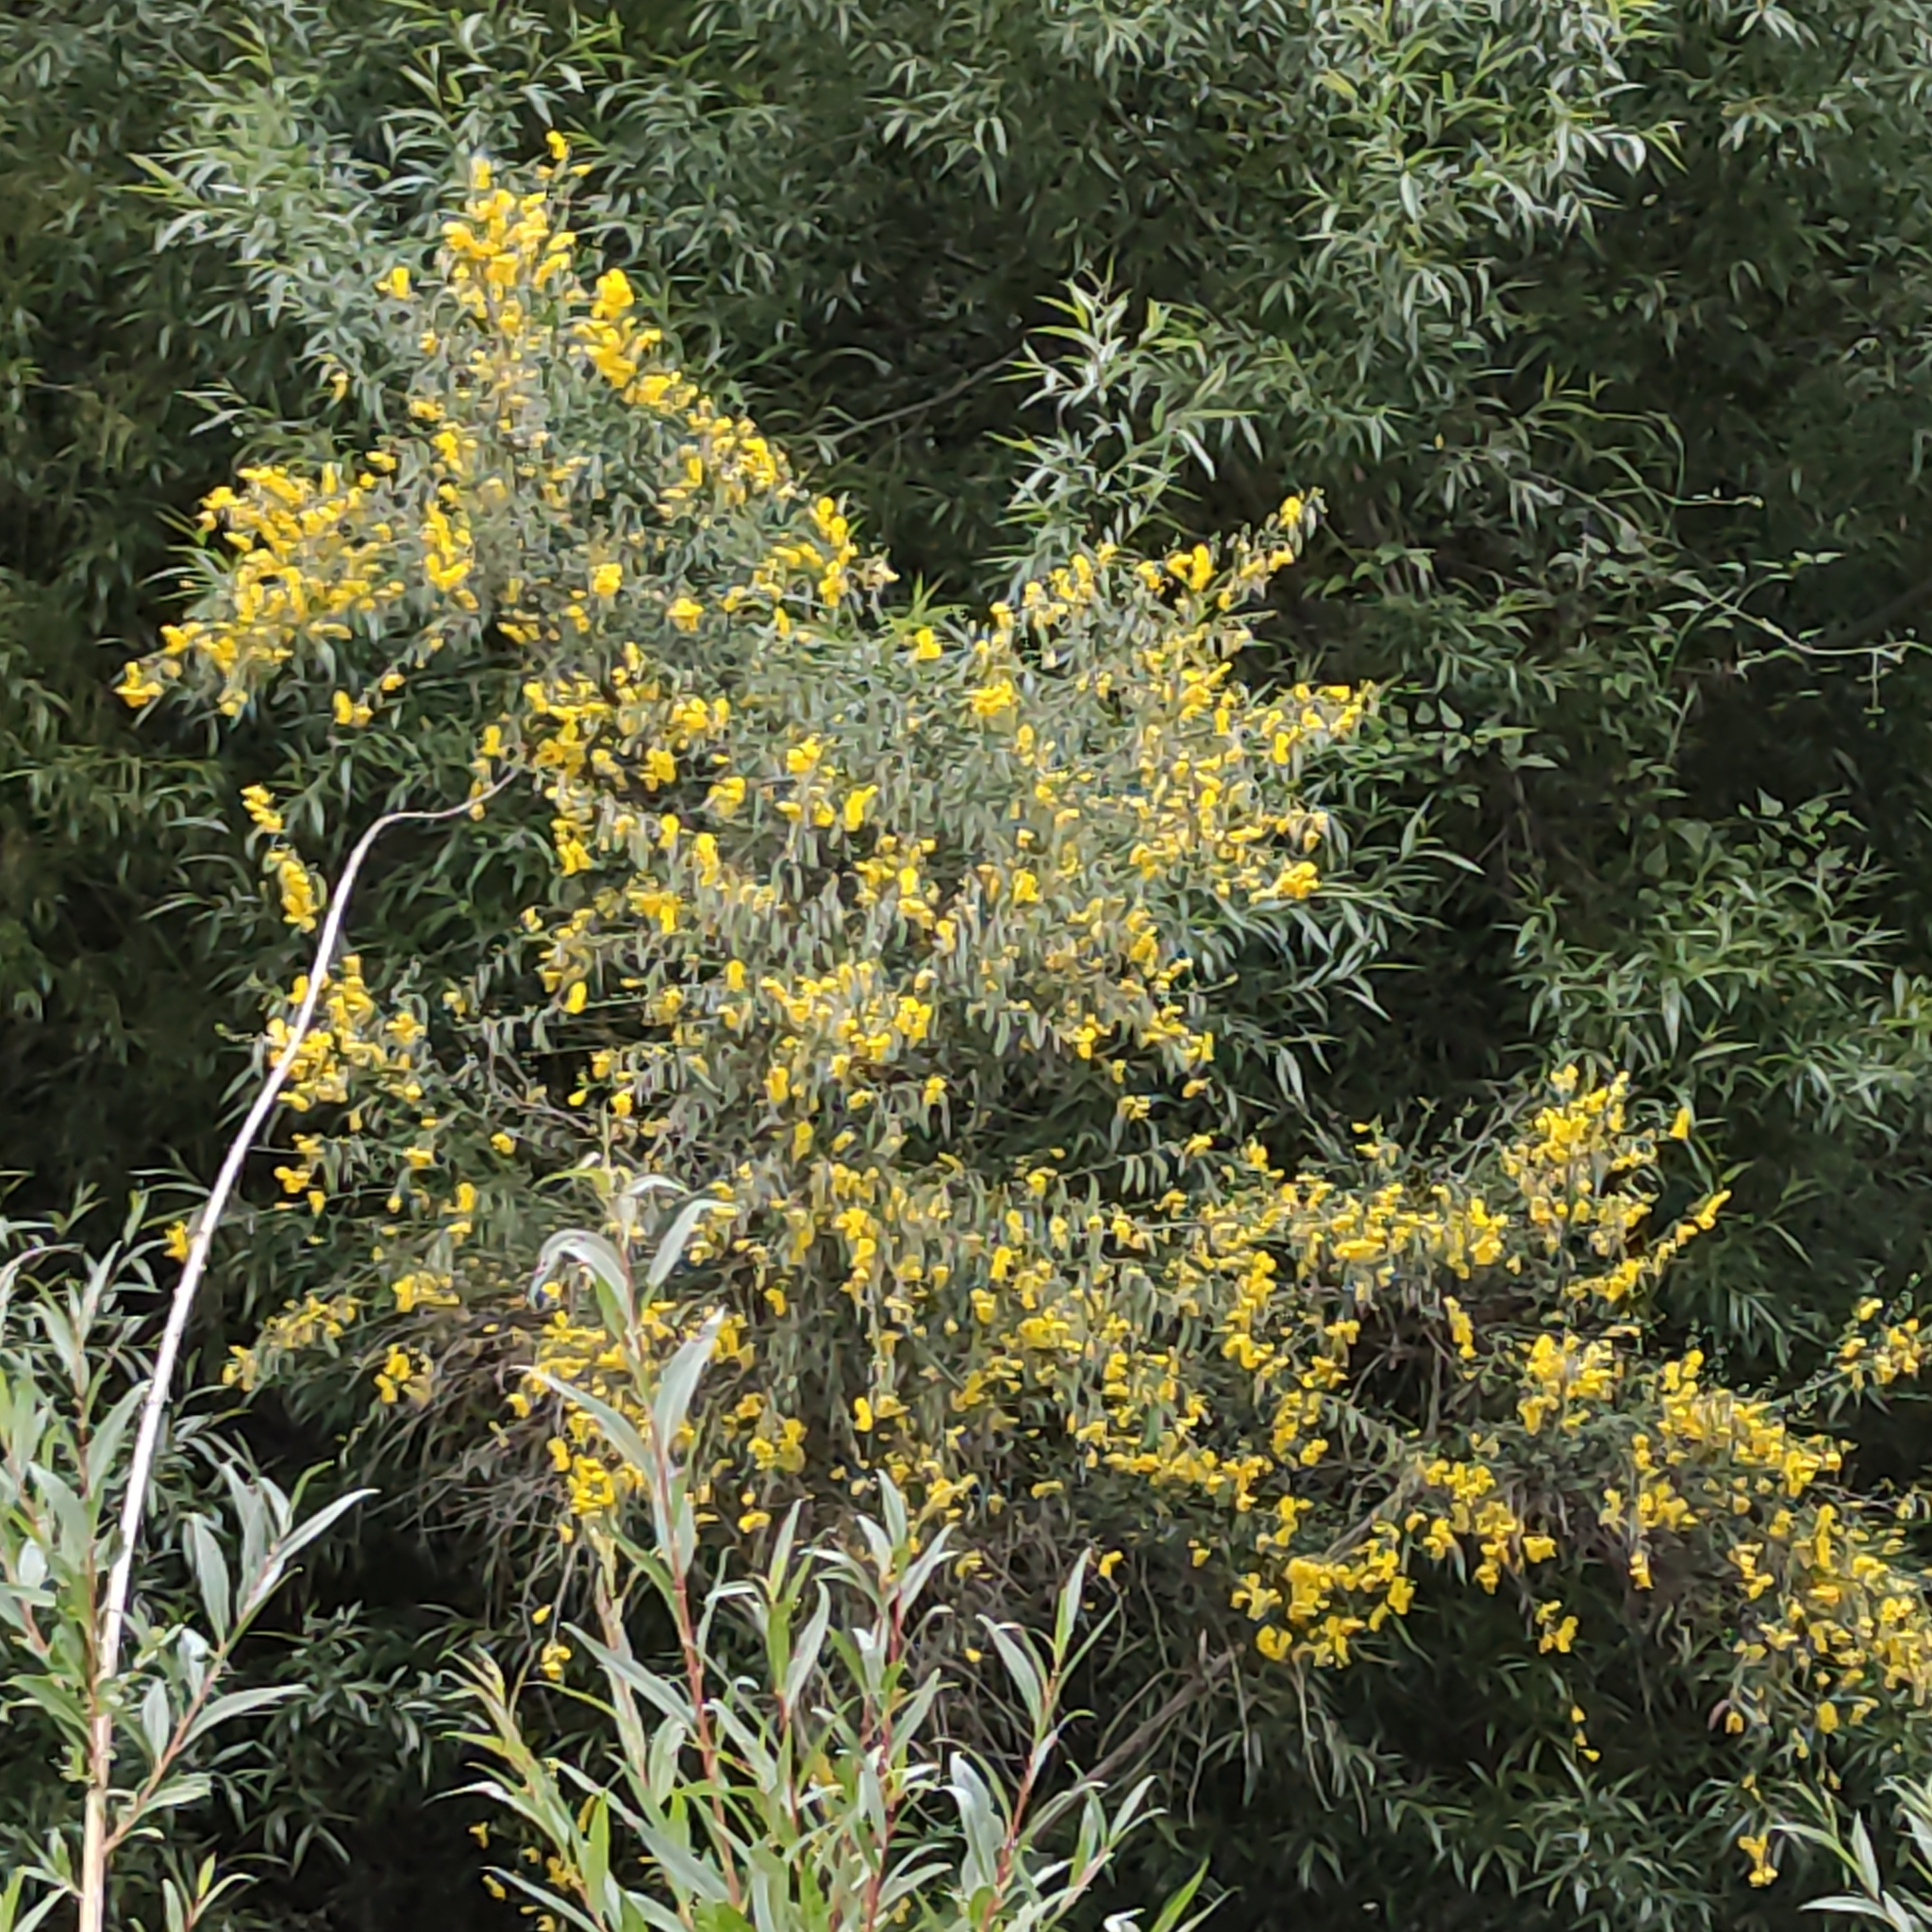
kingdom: Plantae
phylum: Tracheophyta
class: Magnoliopsida
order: Fabales
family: Fabaceae
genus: Cytisus
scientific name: Cytisus scoparius
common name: Scotch broom
